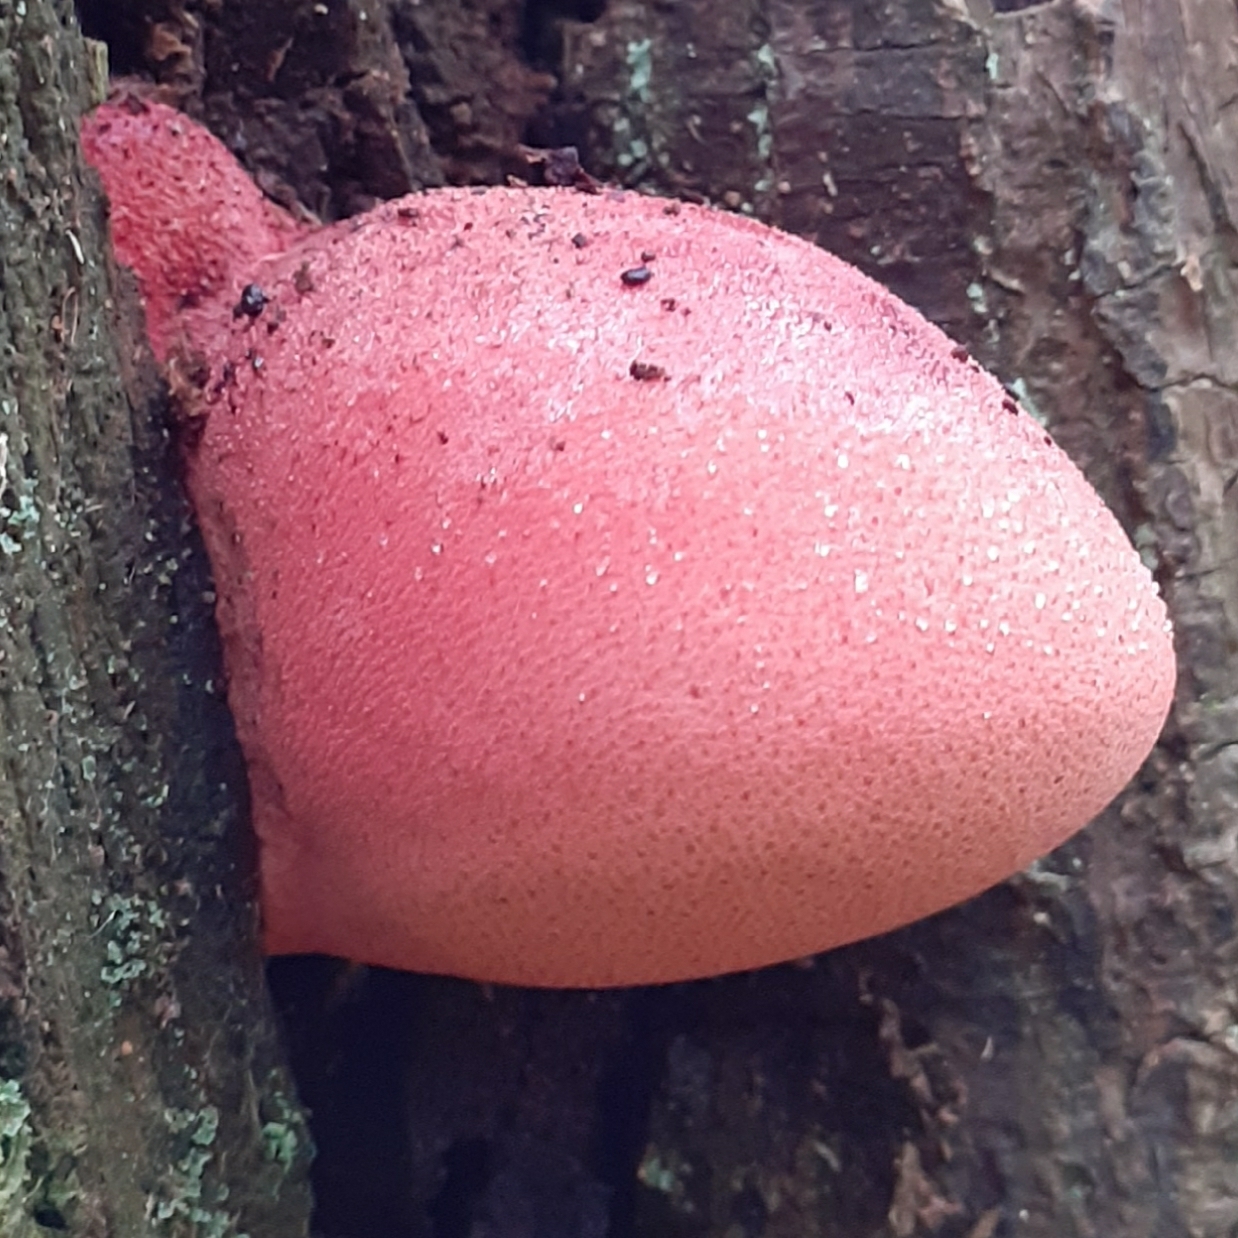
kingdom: Fungi
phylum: Basidiomycota
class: Agaricomycetes
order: Agaricales
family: Fistulinaceae
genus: Fistulina
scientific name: Fistulina hepatica
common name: Beef-steak fungus
